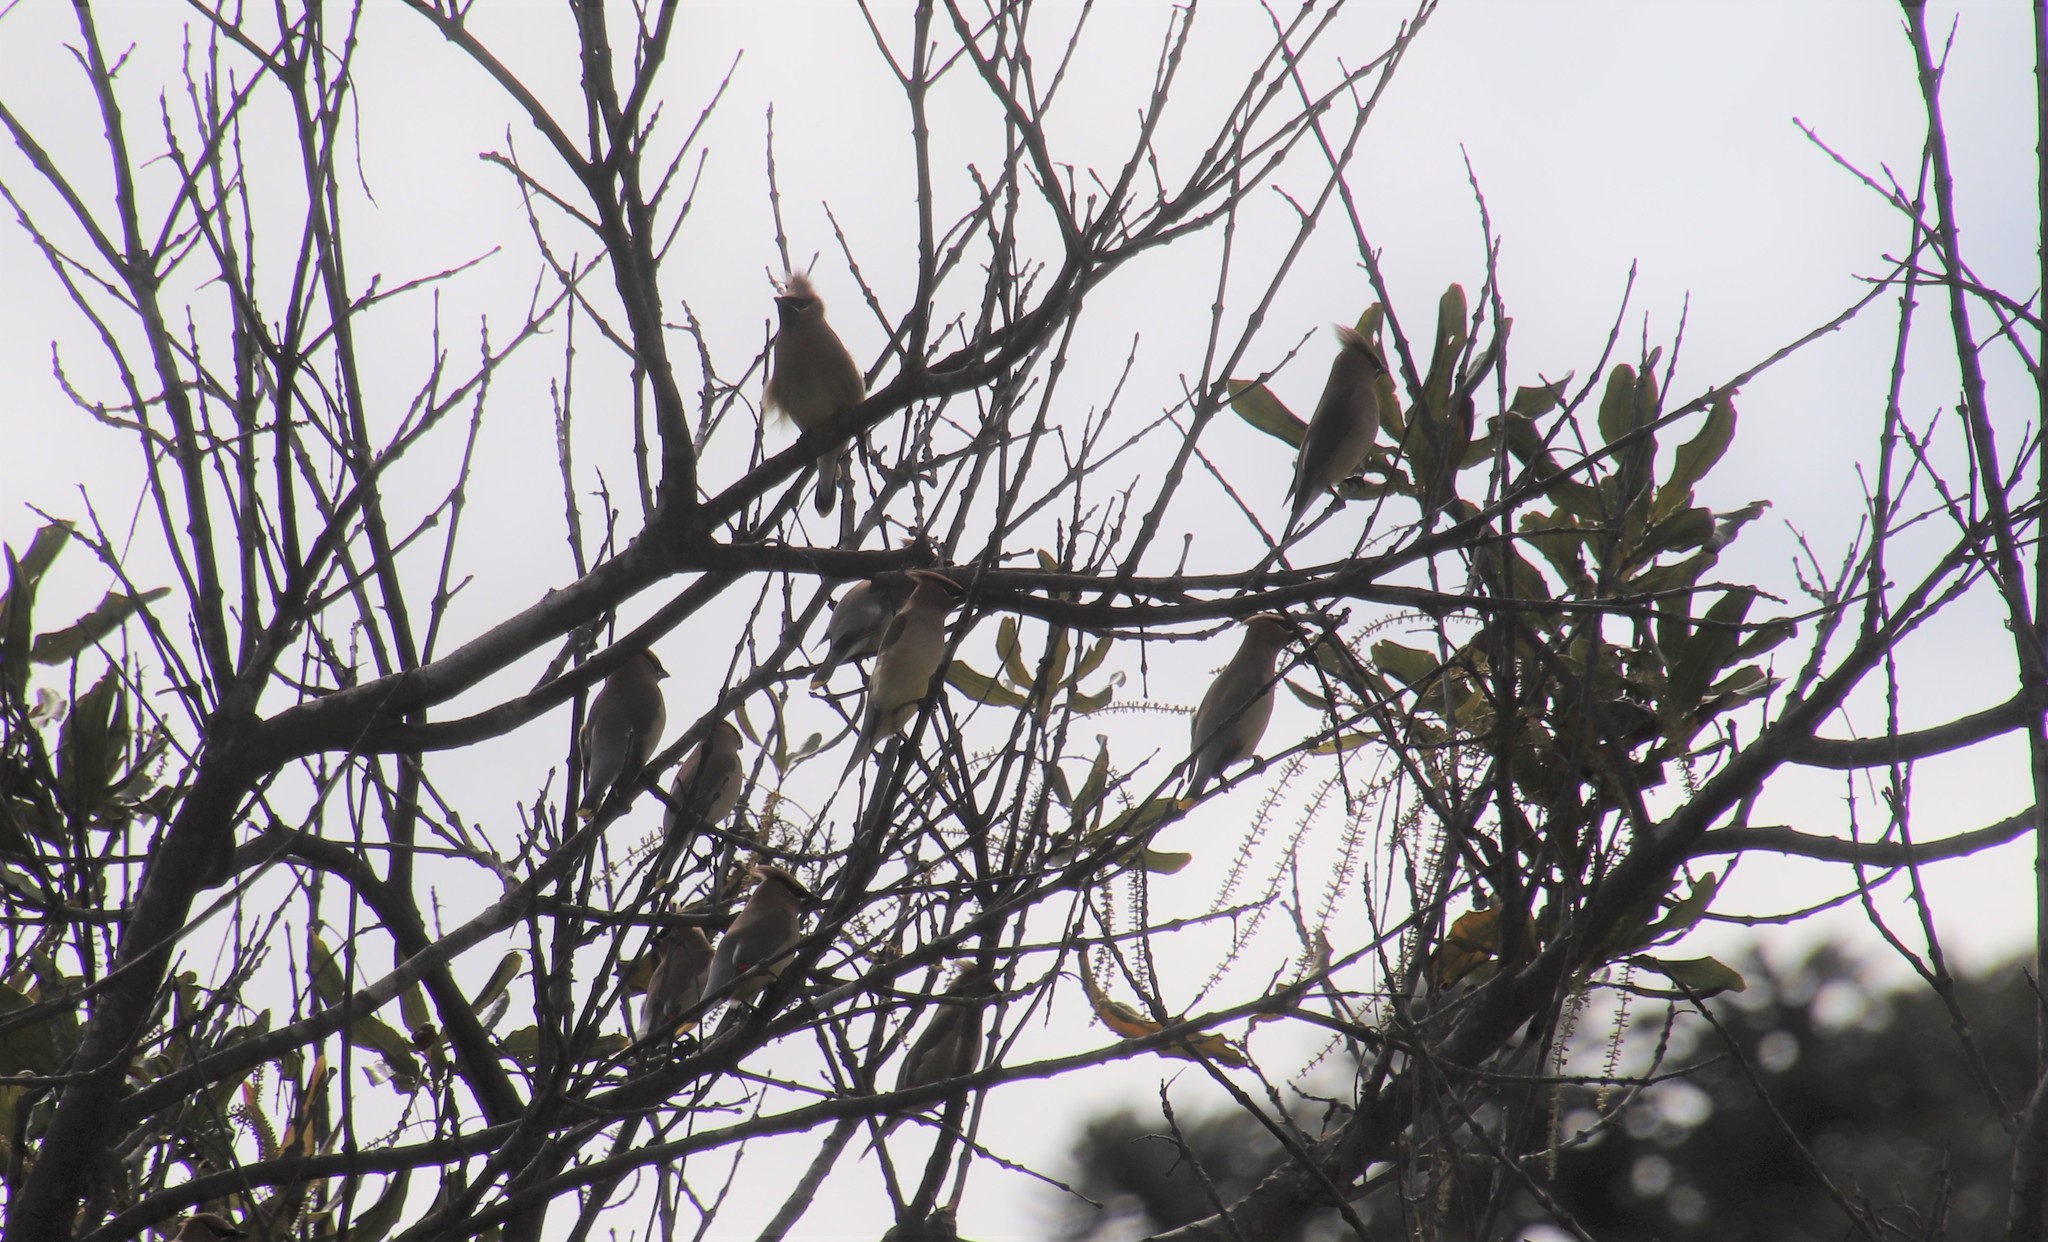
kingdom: Animalia
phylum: Chordata
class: Aves
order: Passeriformes
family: Bombycillidae
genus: Bombycilla
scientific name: Bombycilla cedrorum
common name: Cedar waxwing
